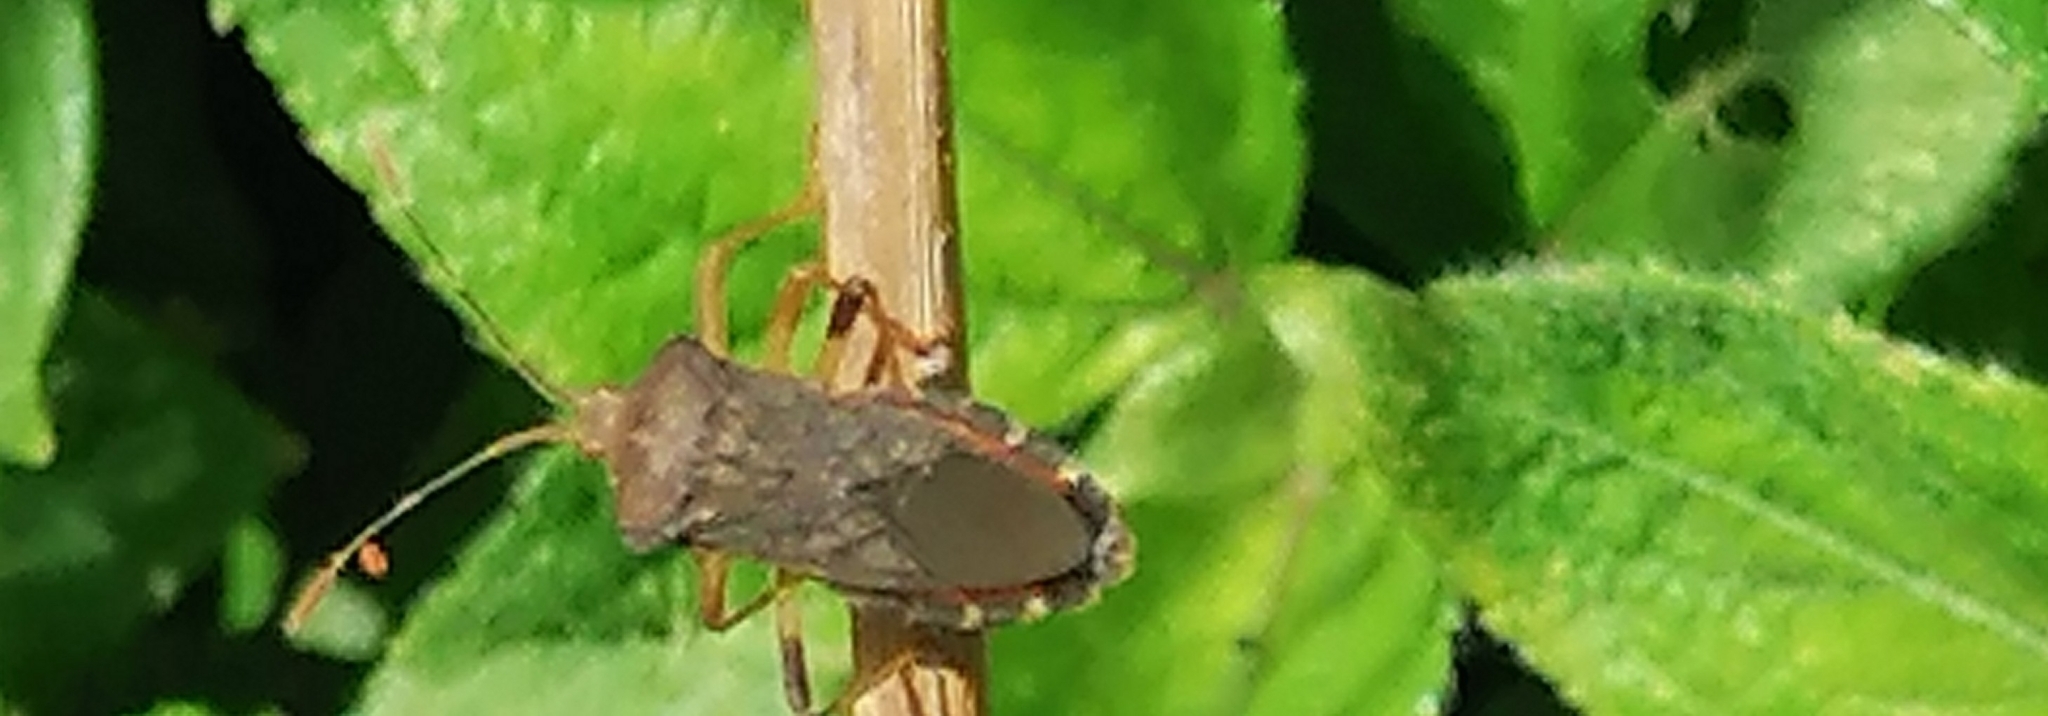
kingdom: Animalia
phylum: Arthropoda
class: Insecta
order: Hemiptera
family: Coreidae
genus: Anasa
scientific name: Anasa scorbutica
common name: Squash bug
